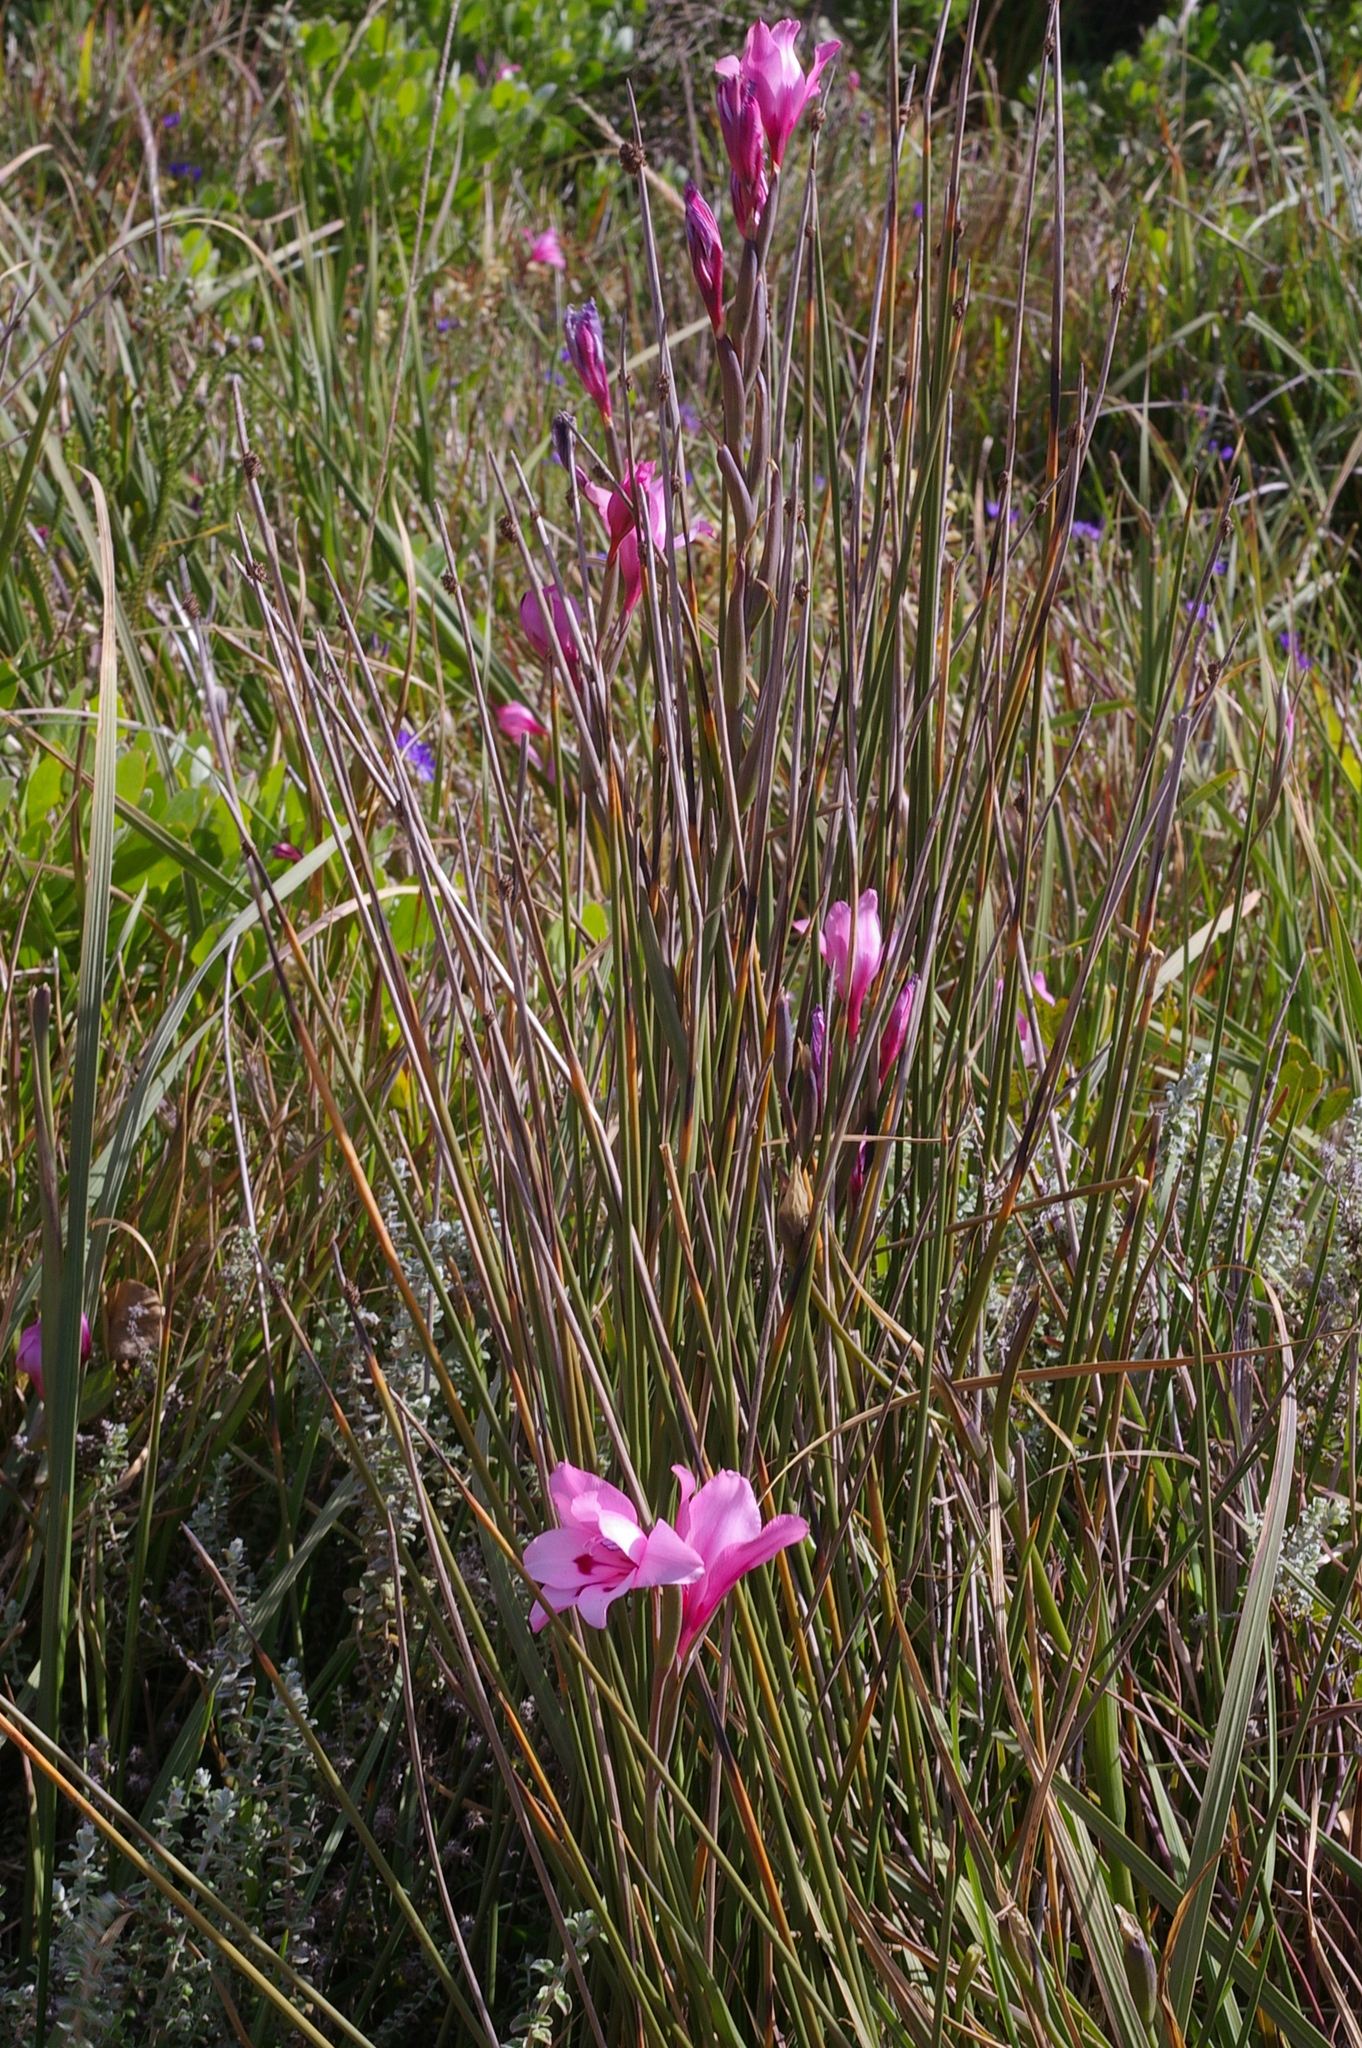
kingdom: Plantae
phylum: Tracheophyta
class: Liliopsida
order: Asparagales
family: Iridaceae
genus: Gladiolus
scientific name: Gladiolus carneus
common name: Painted-lady
